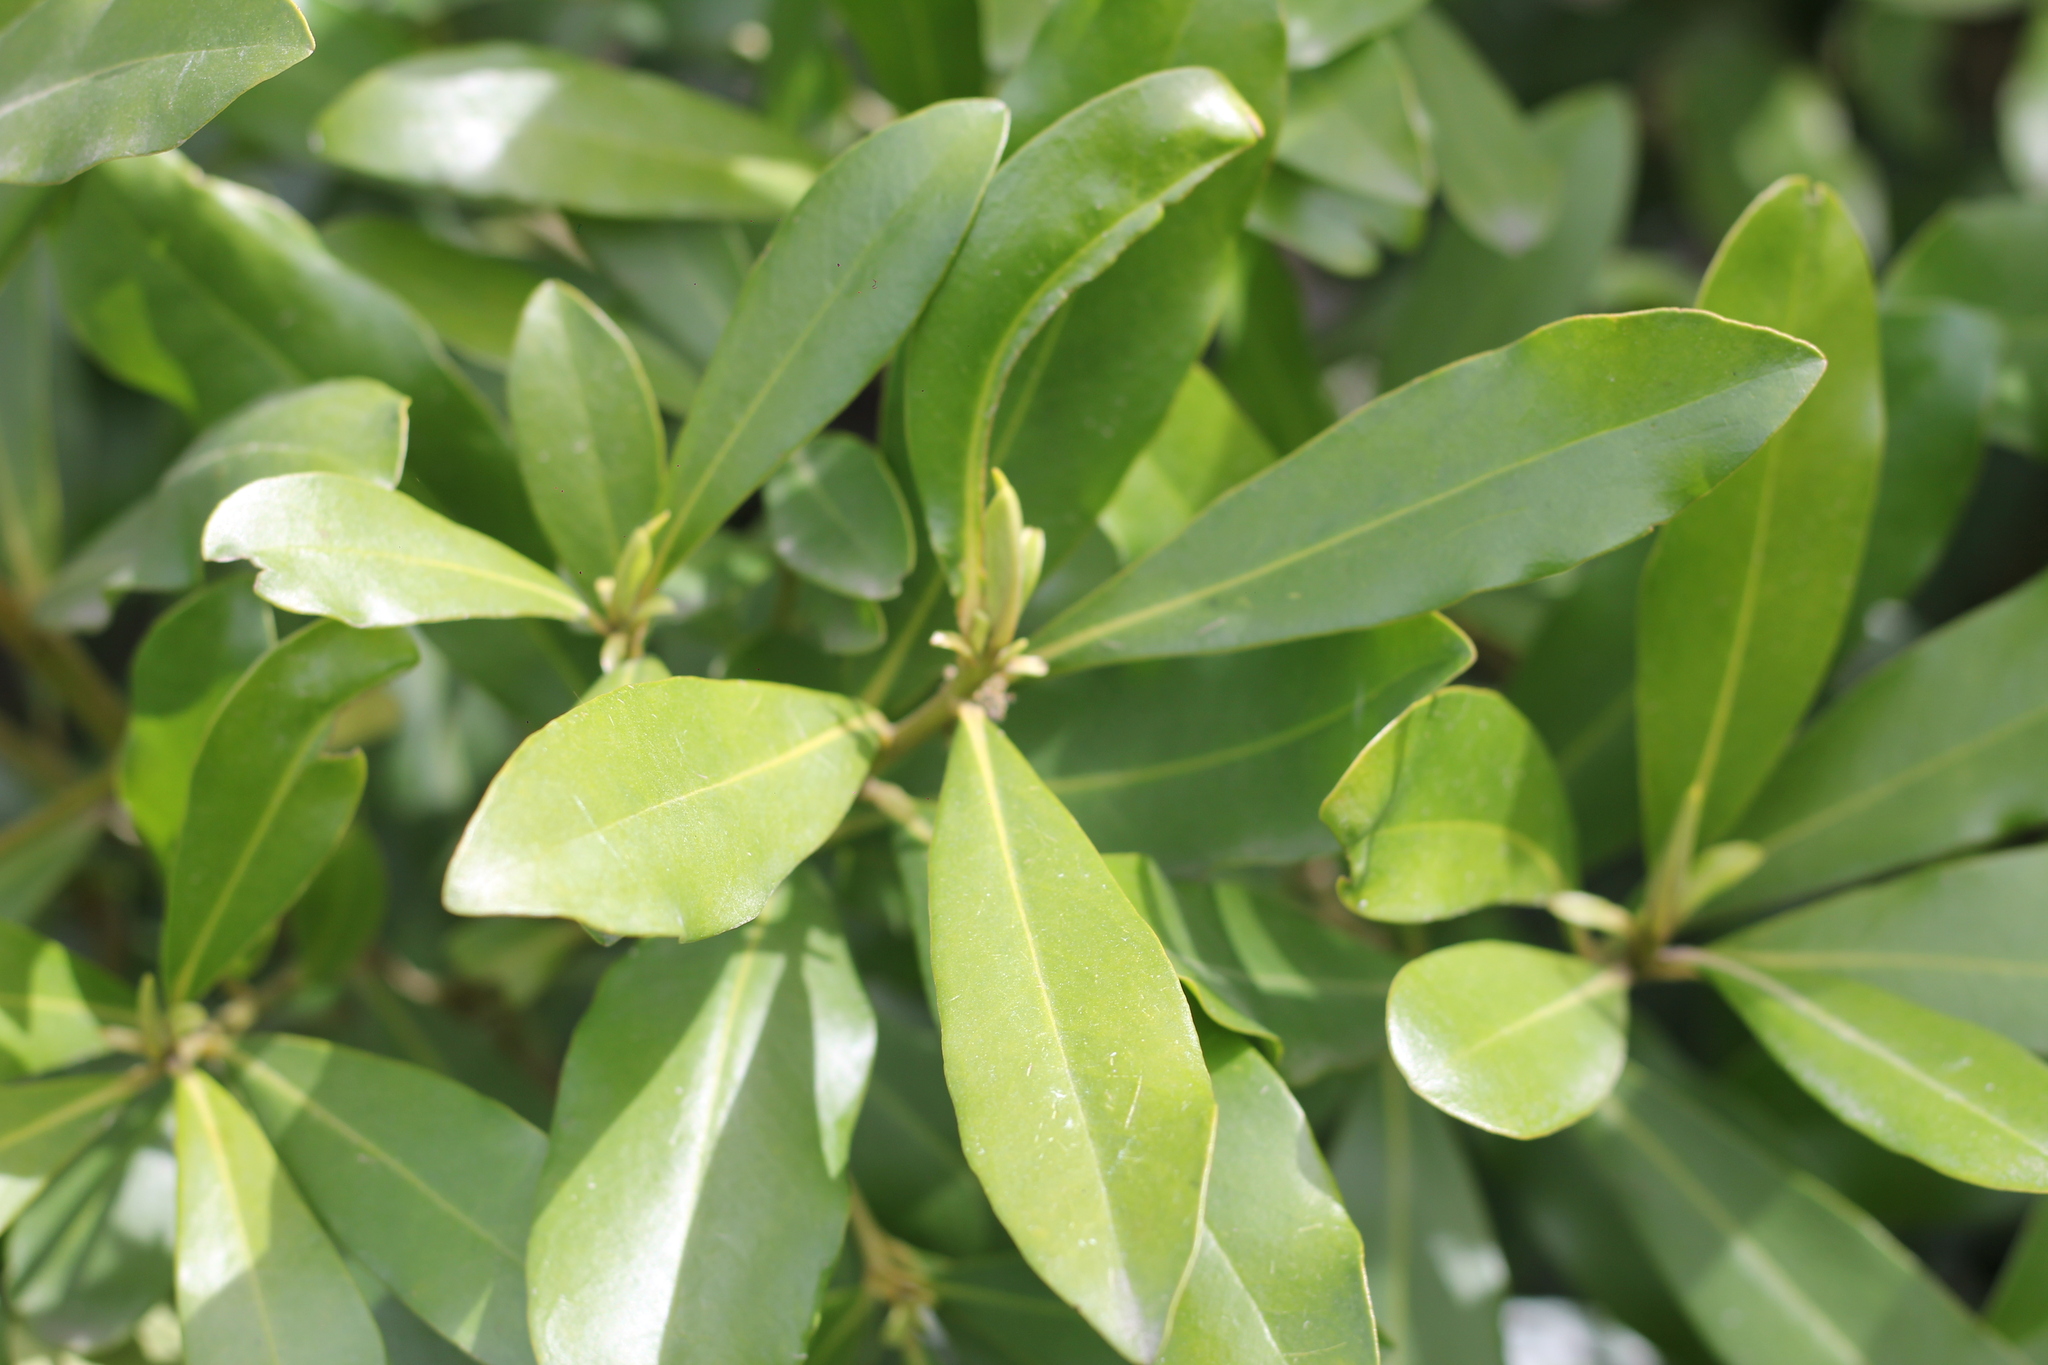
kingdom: Plantae
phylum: Tracheophyta
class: Magnoliopsida
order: Ericales
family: Primulaceae
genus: Myrsine
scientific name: Myrsine laetevirens
